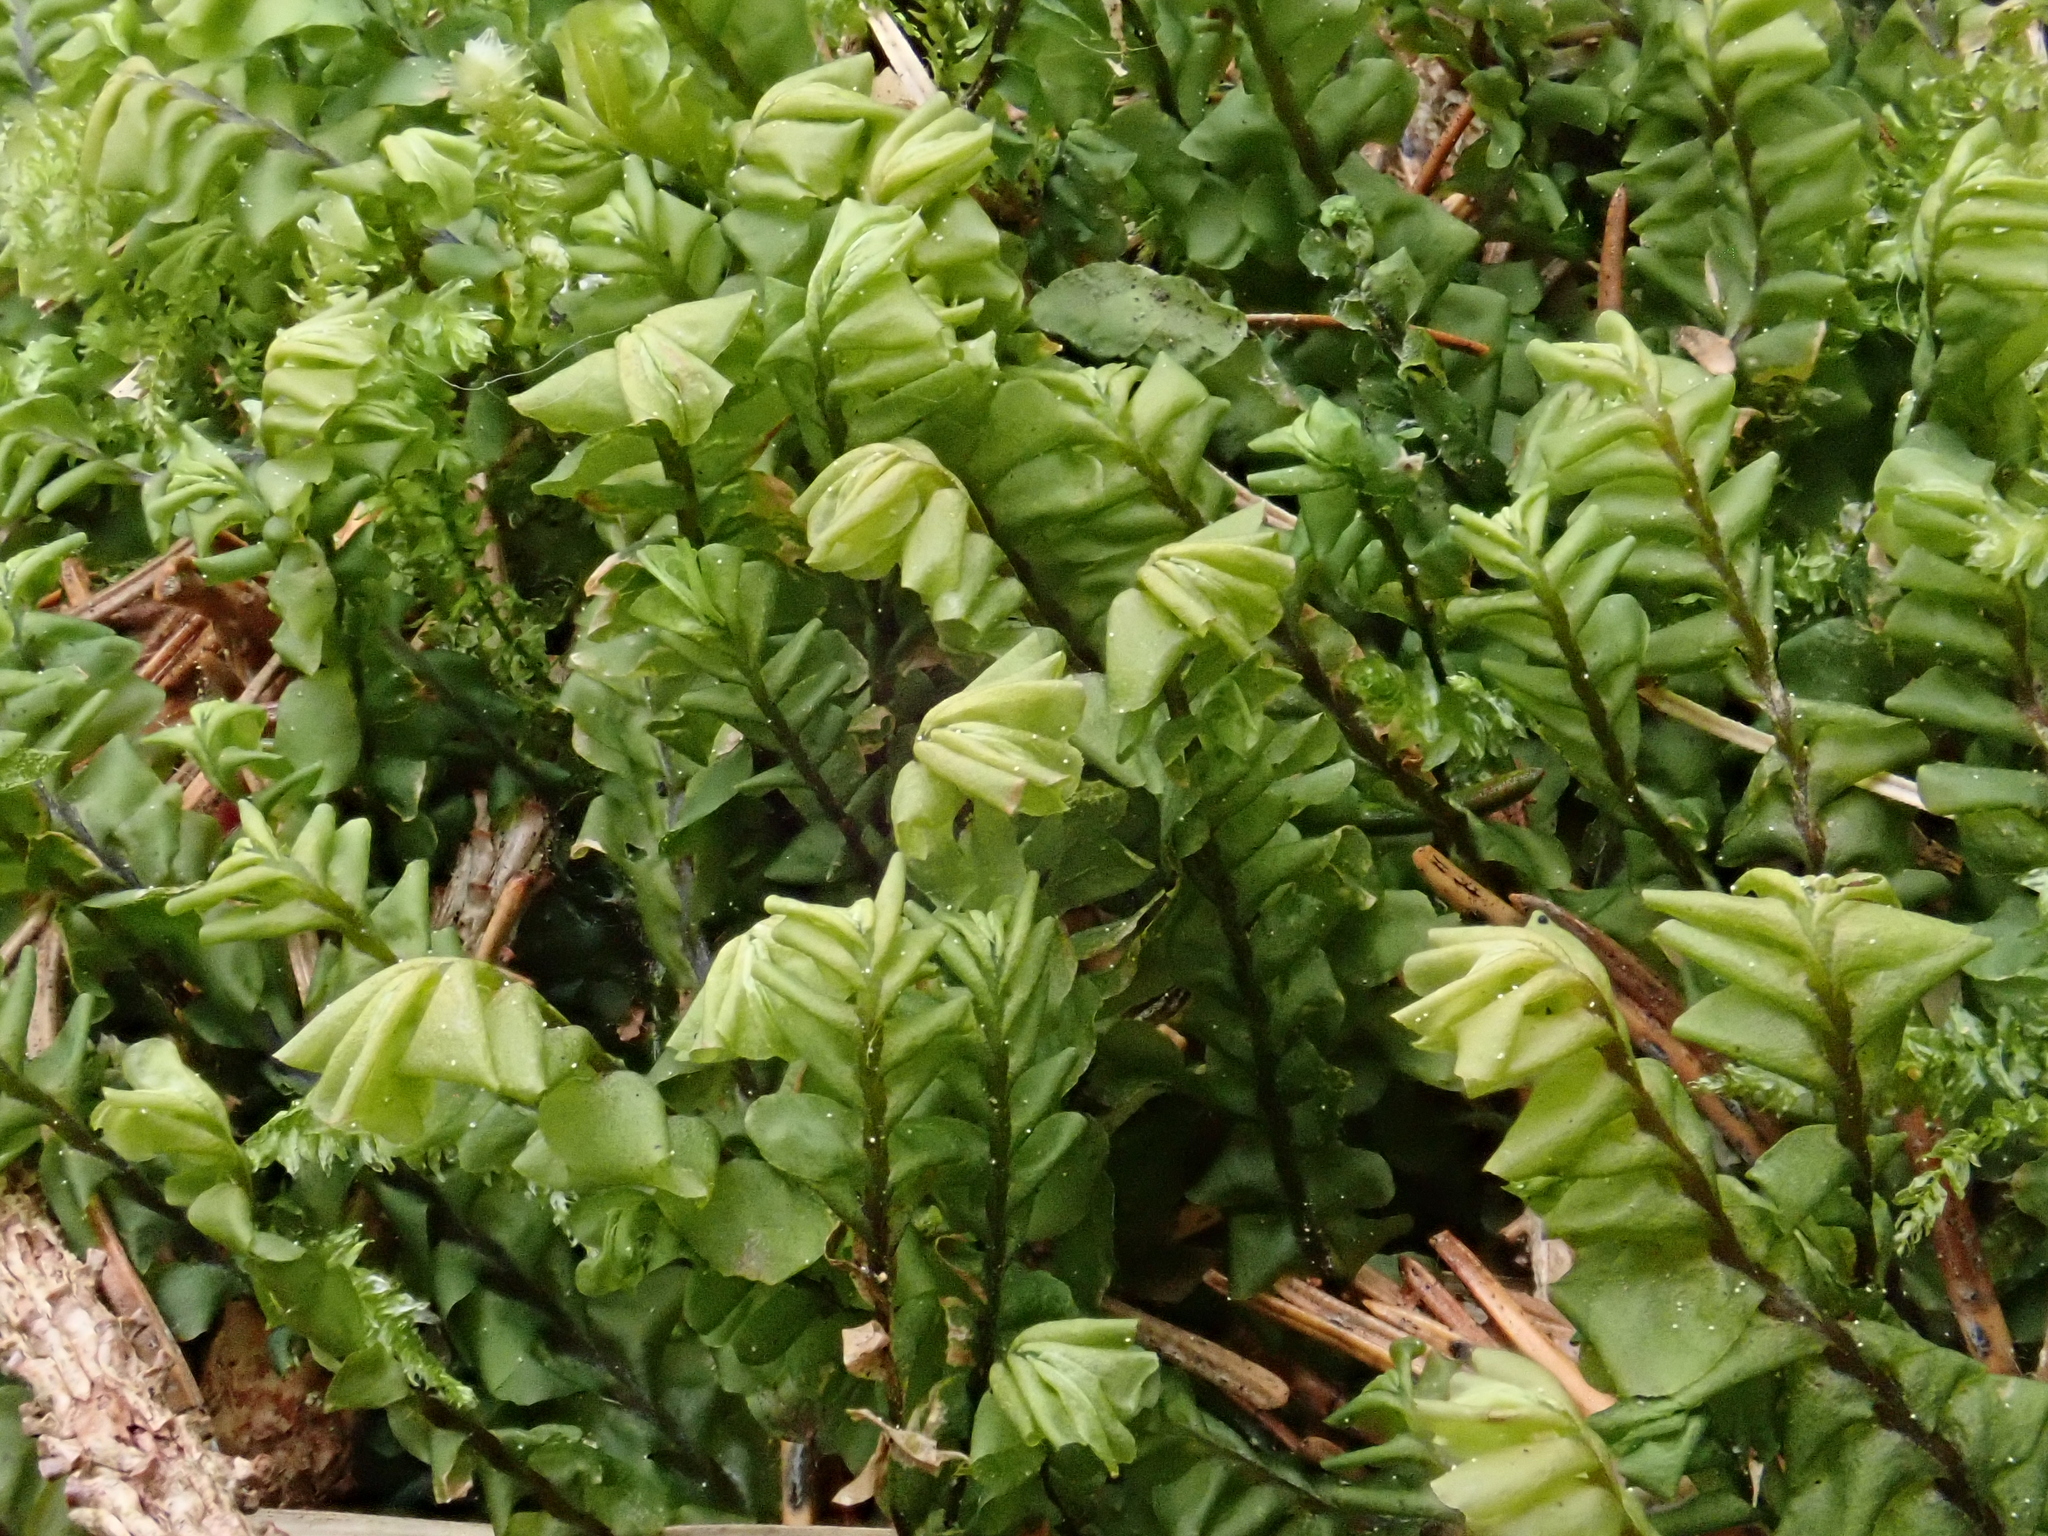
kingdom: Plantae
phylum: Marchantiophyta
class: Jungermanniopsida
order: Jungermanniales
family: Plagiochilaceae
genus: Plagiochila
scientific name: Plagiochila asplenioides
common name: Greater featherwort
